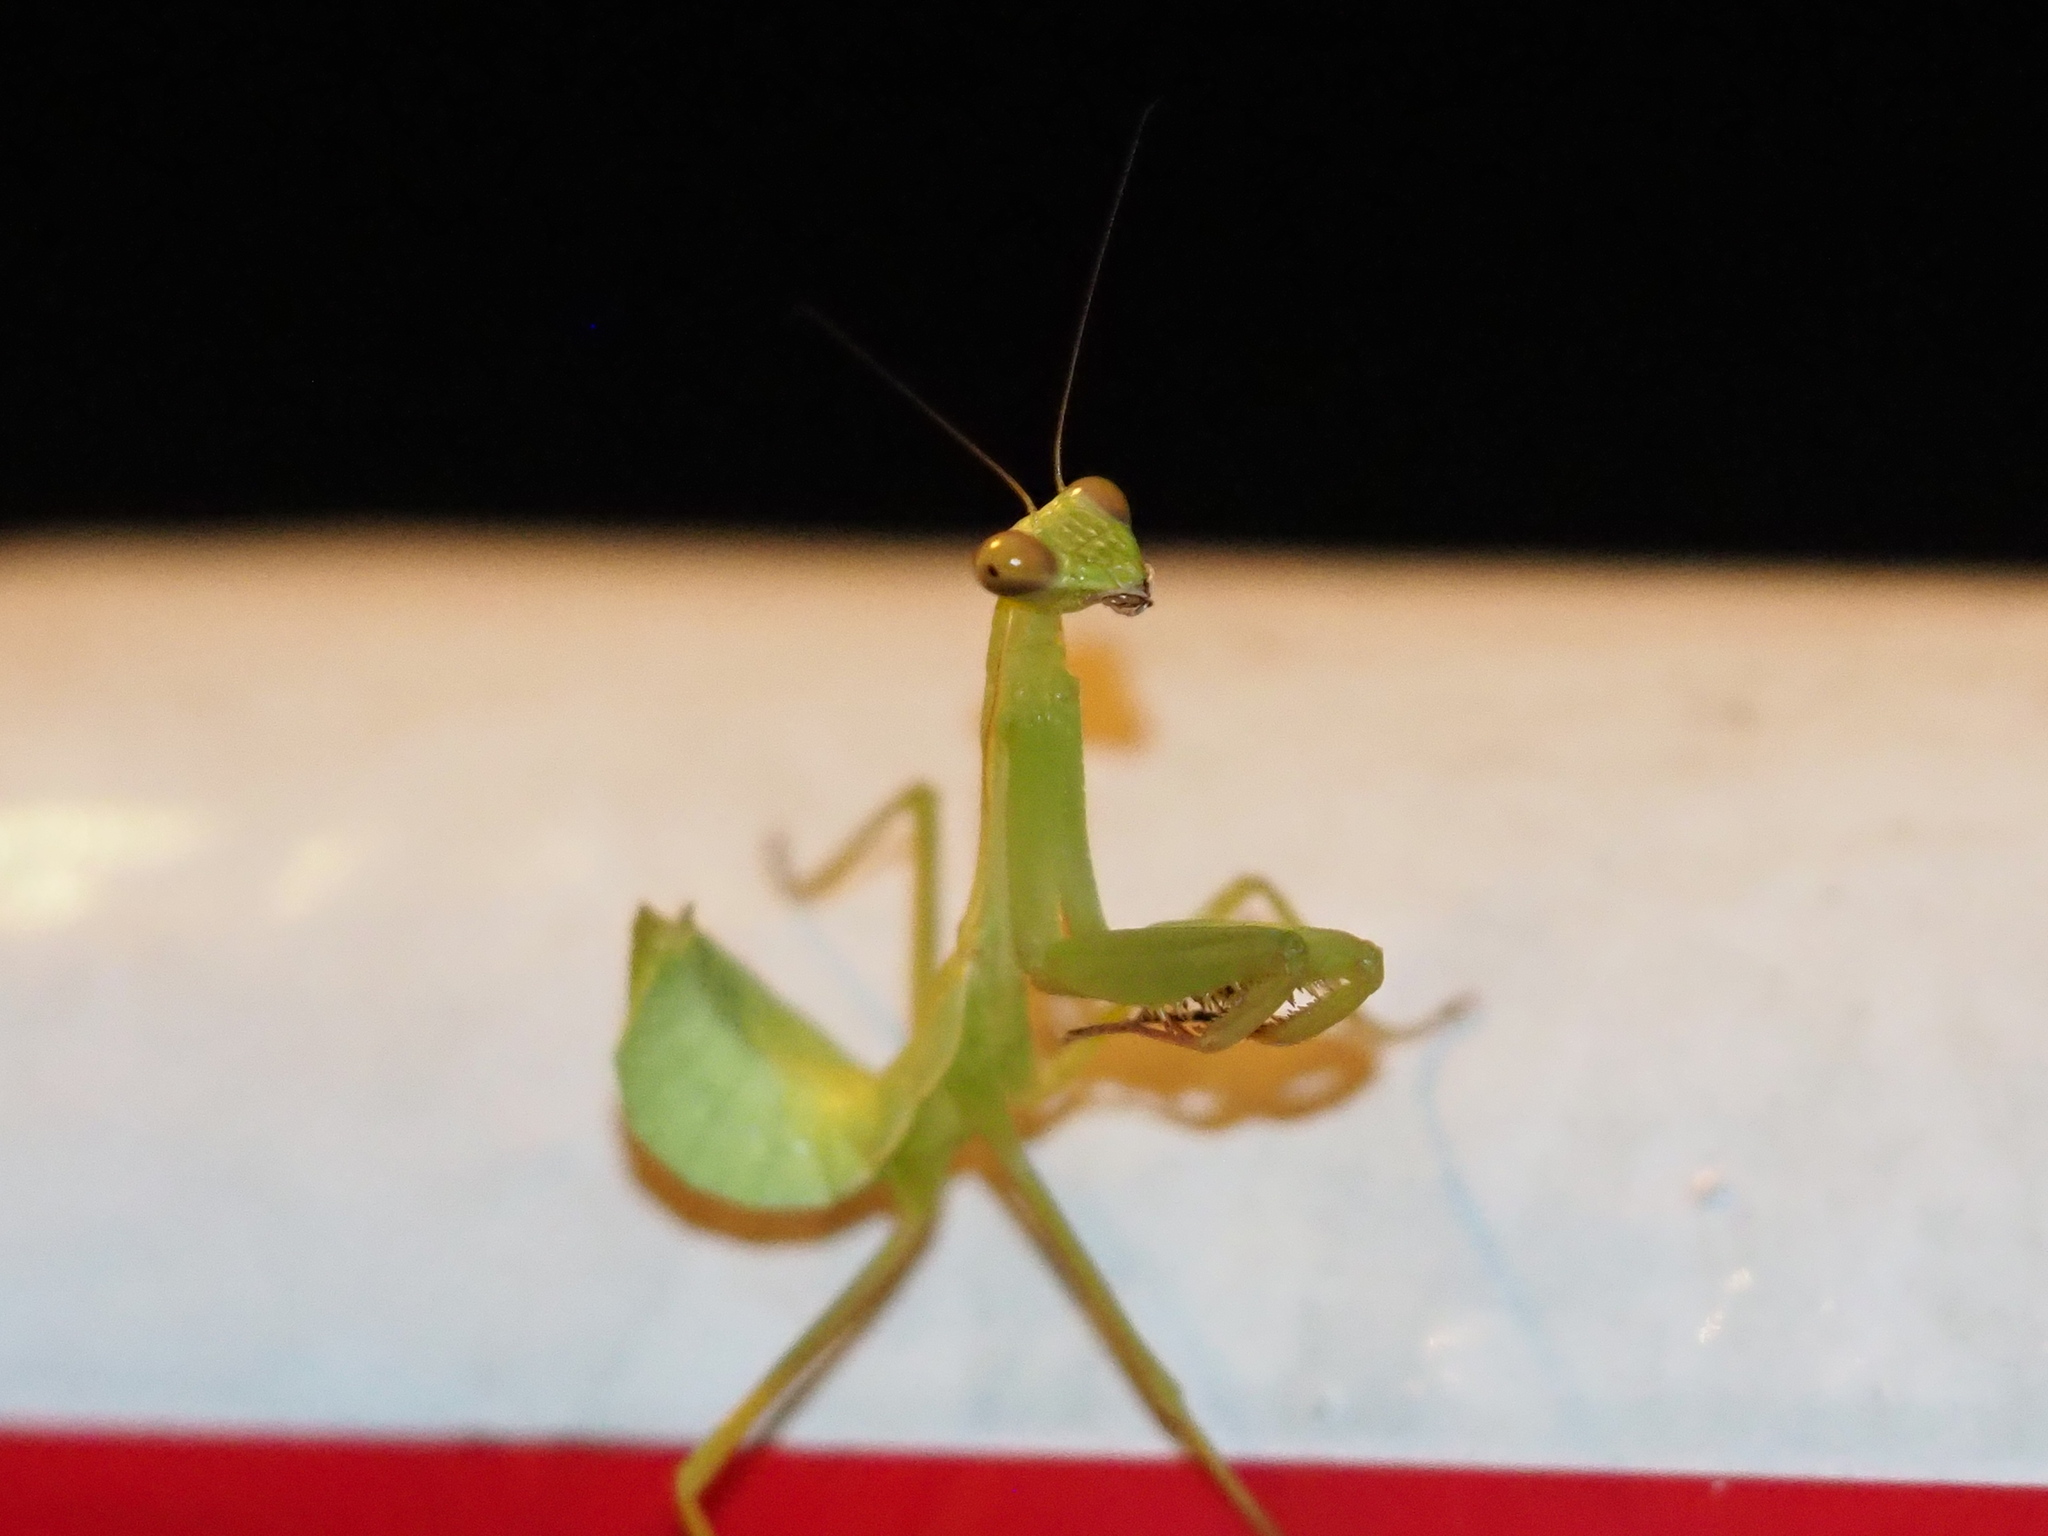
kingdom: Animalia
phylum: Arthropoda
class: Insecta
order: Mantodea
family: Mantidae
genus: Titanodula
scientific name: Titanodula formosana
